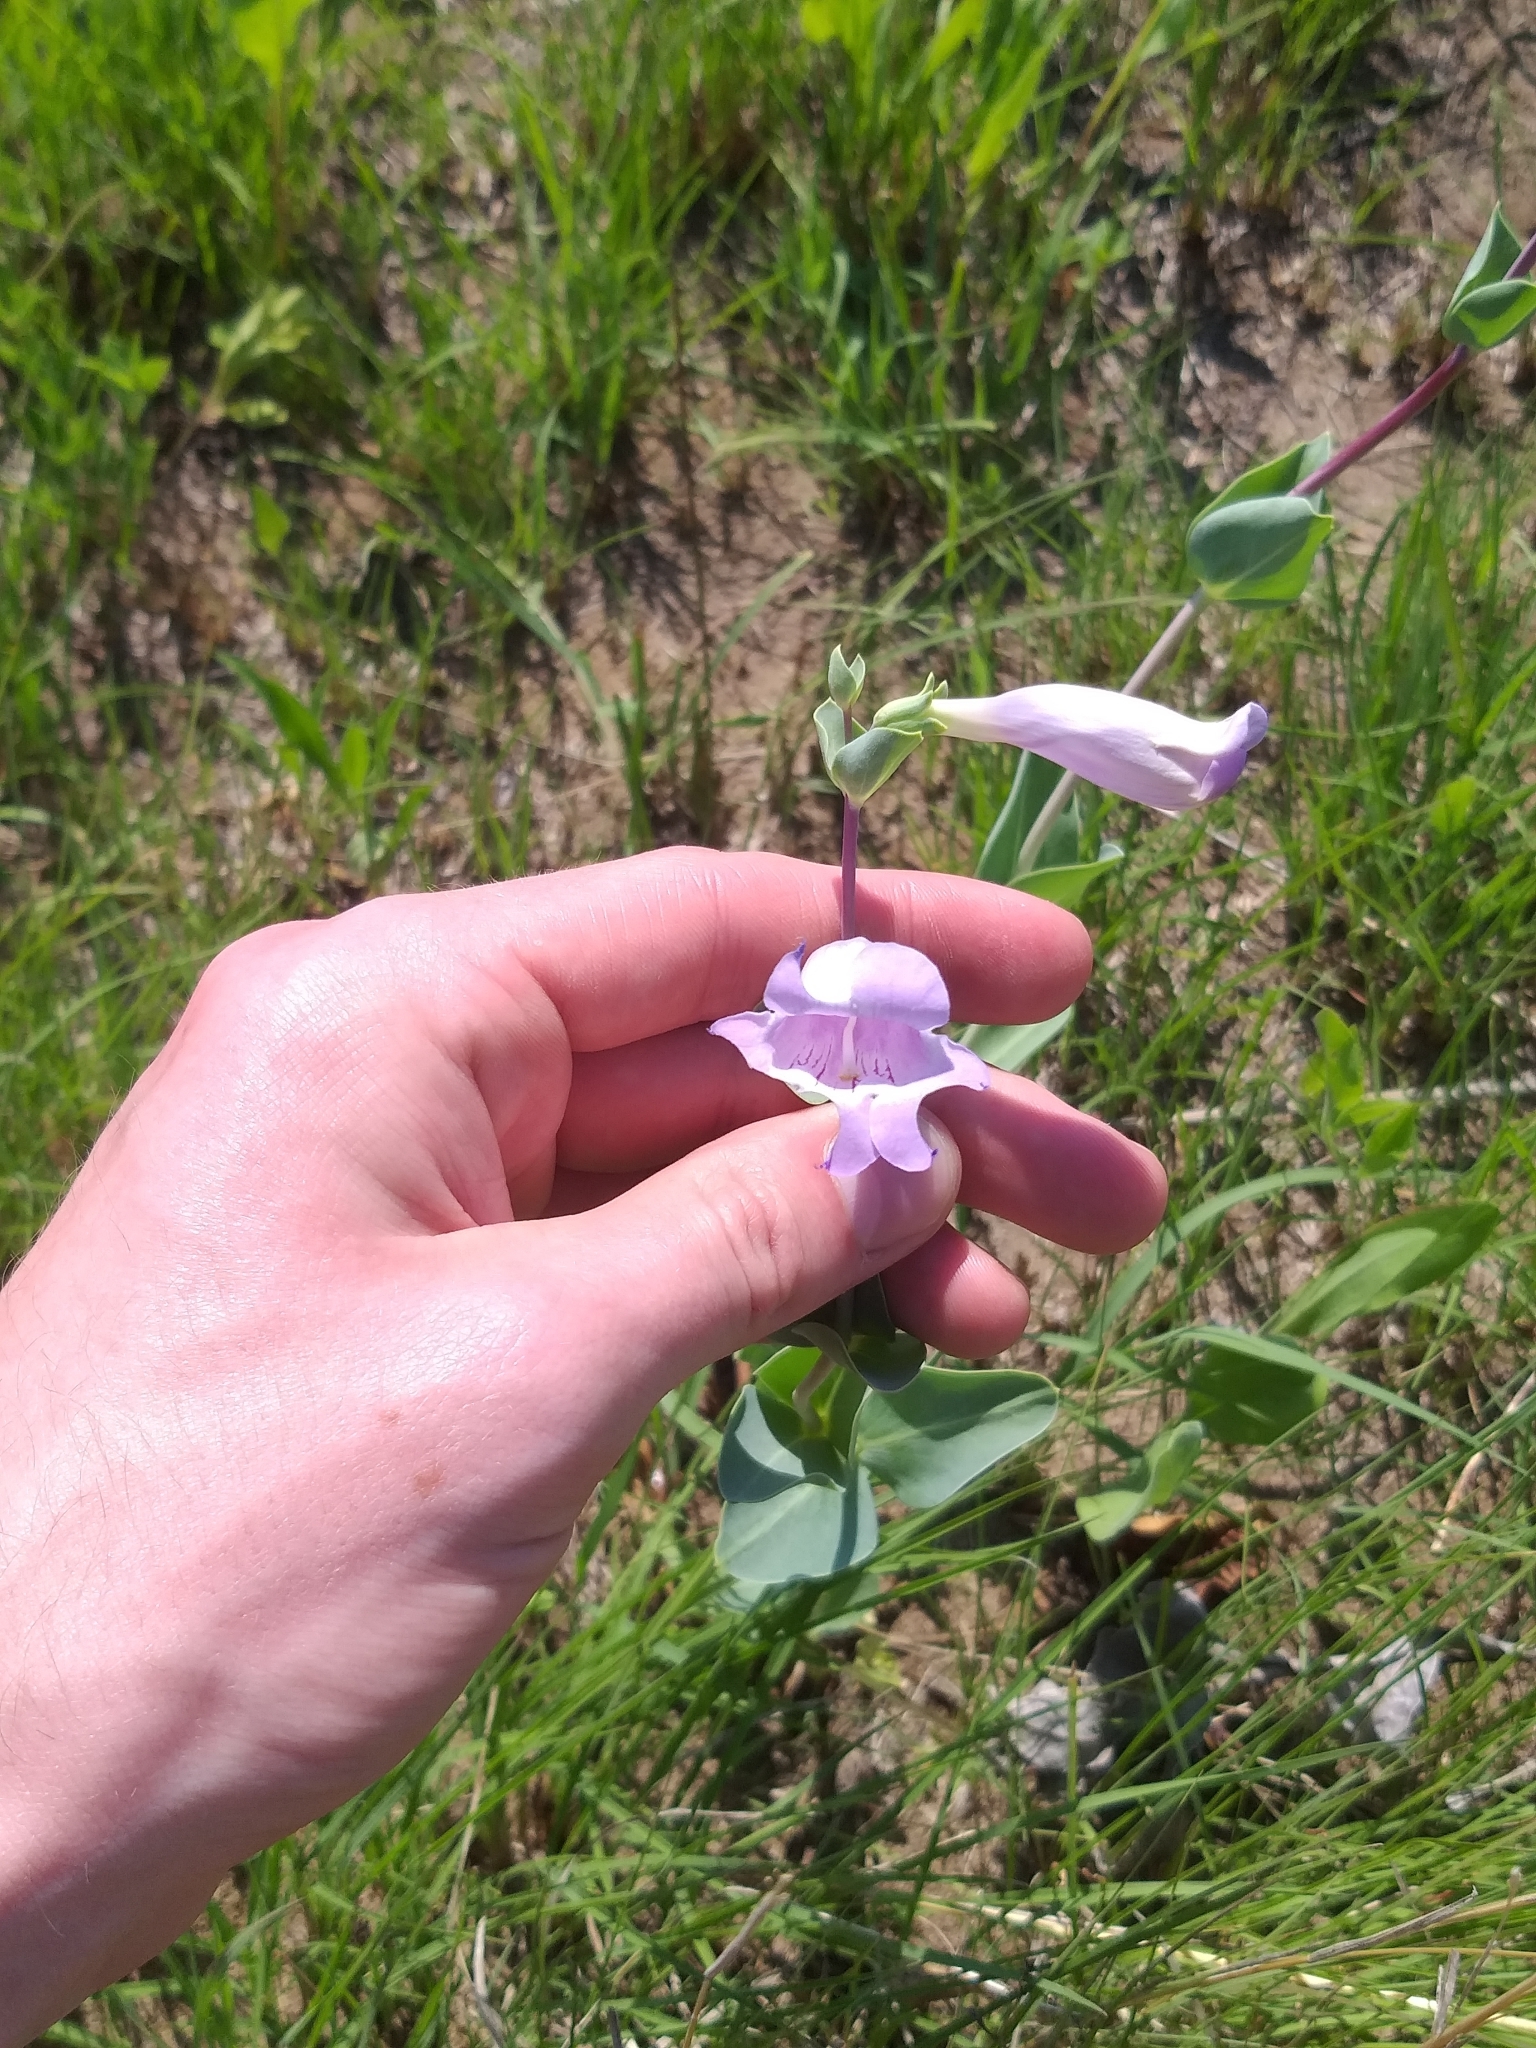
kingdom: Plantae
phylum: Tracheophyta
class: Magnoliopsida
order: Lamiales
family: Plantaginaceae
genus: Penstemon
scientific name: Penstemon
